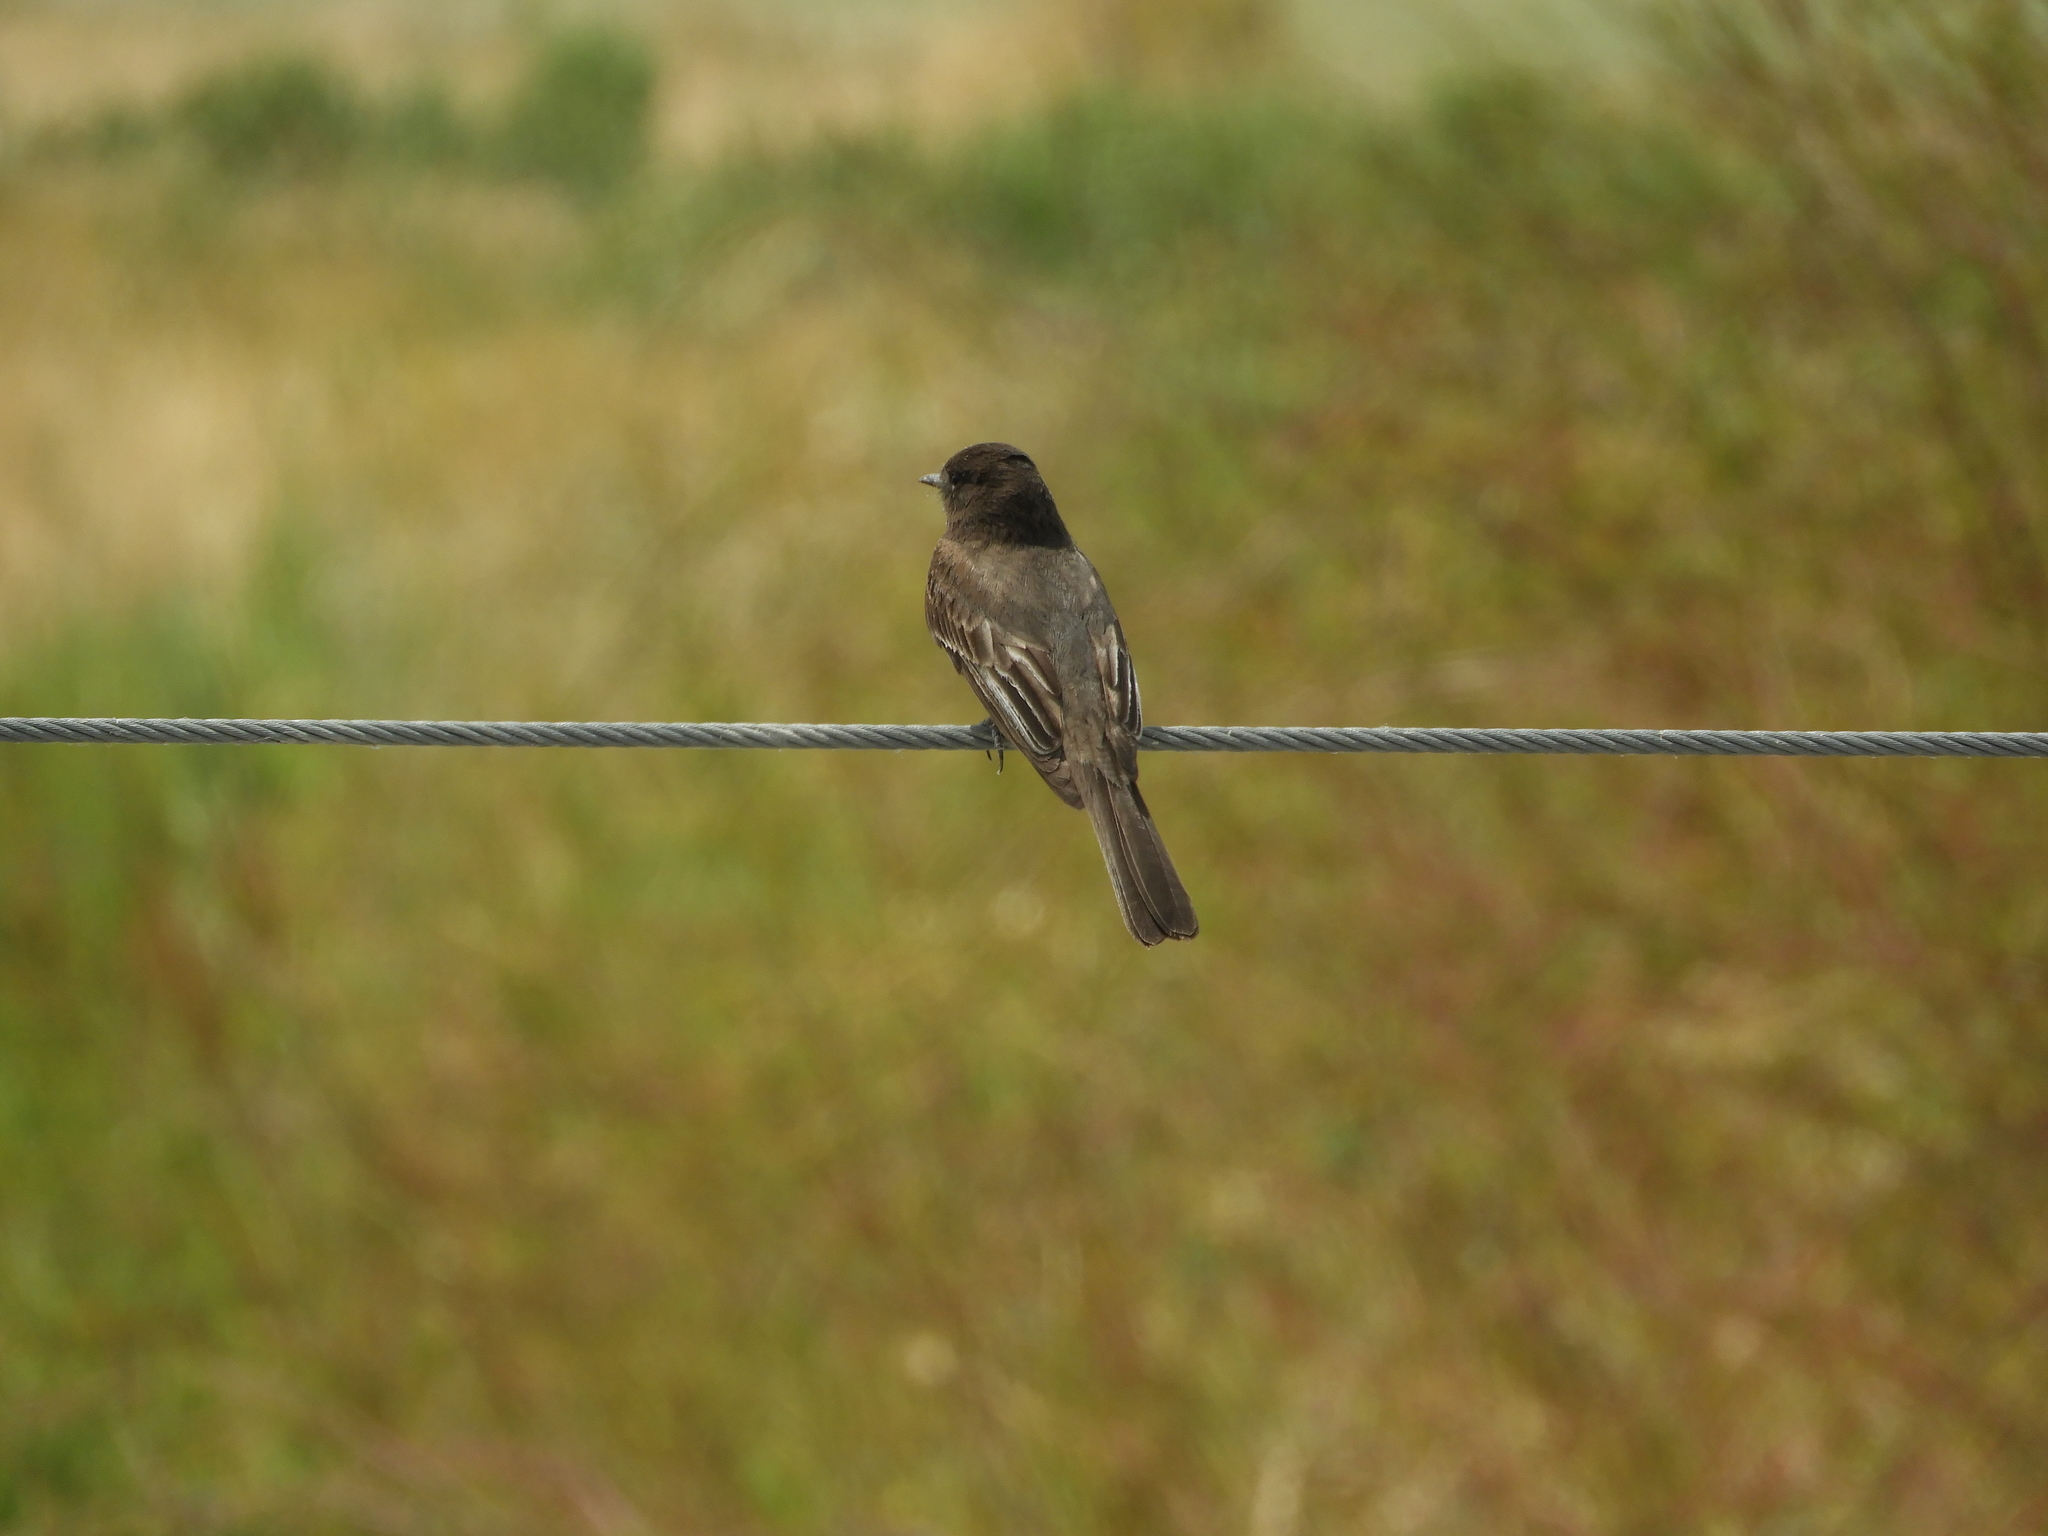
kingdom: Animalia
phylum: Chordata
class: Aves
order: Passeriformes
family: Tyrannidae
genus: Sayornis
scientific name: Sayornis nigricans
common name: Black phoebe
